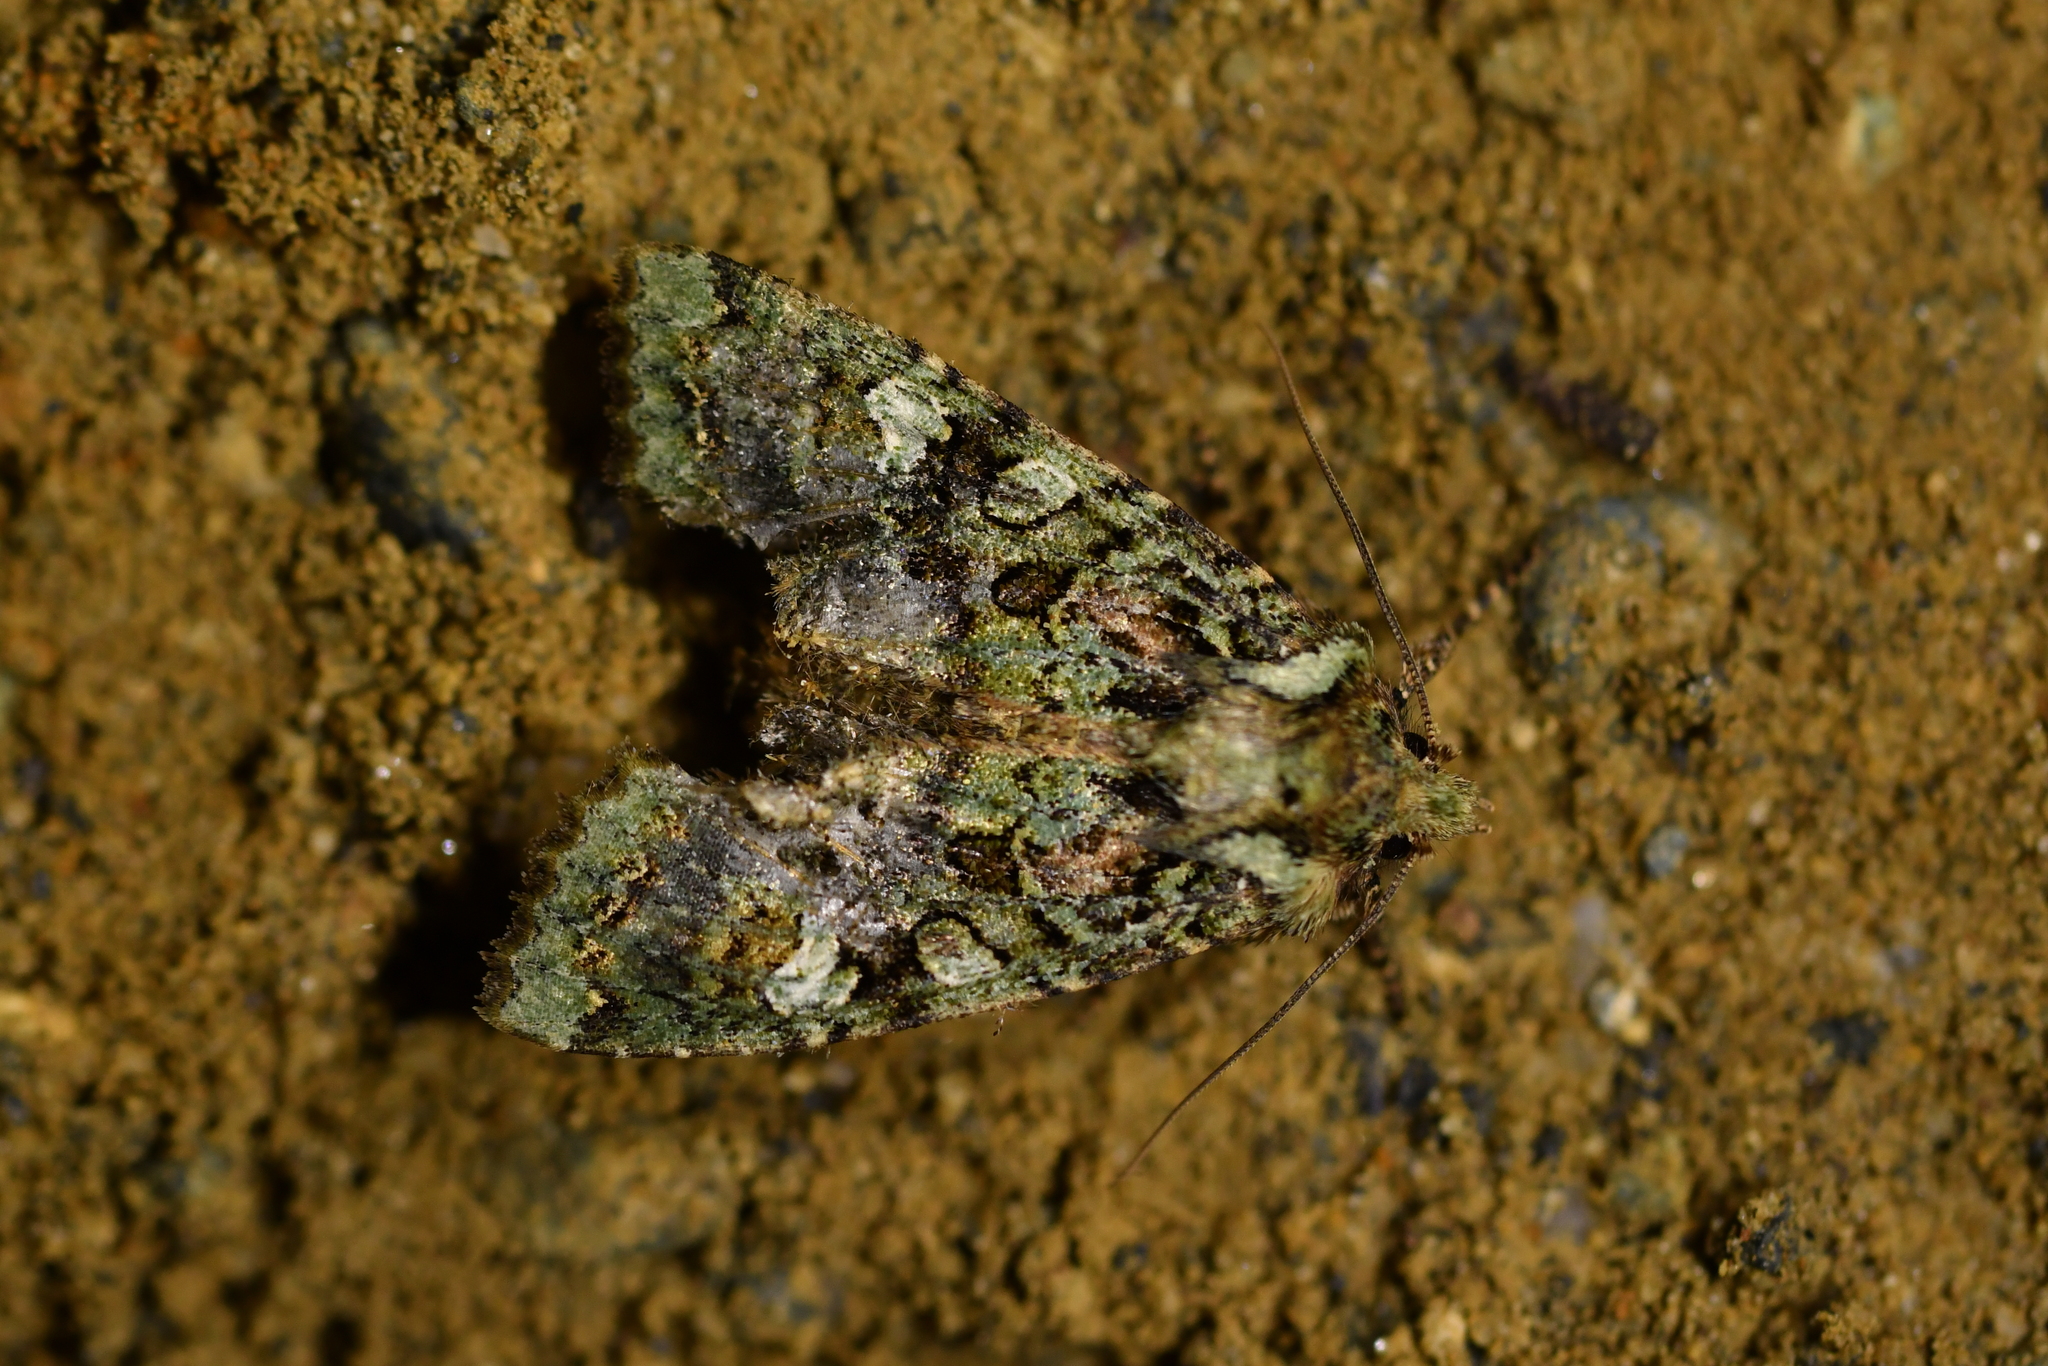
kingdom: Animalia
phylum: Arthropoda
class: Insecta
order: Lepidoptera
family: Noctuidae
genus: Meterana
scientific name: Meterana
